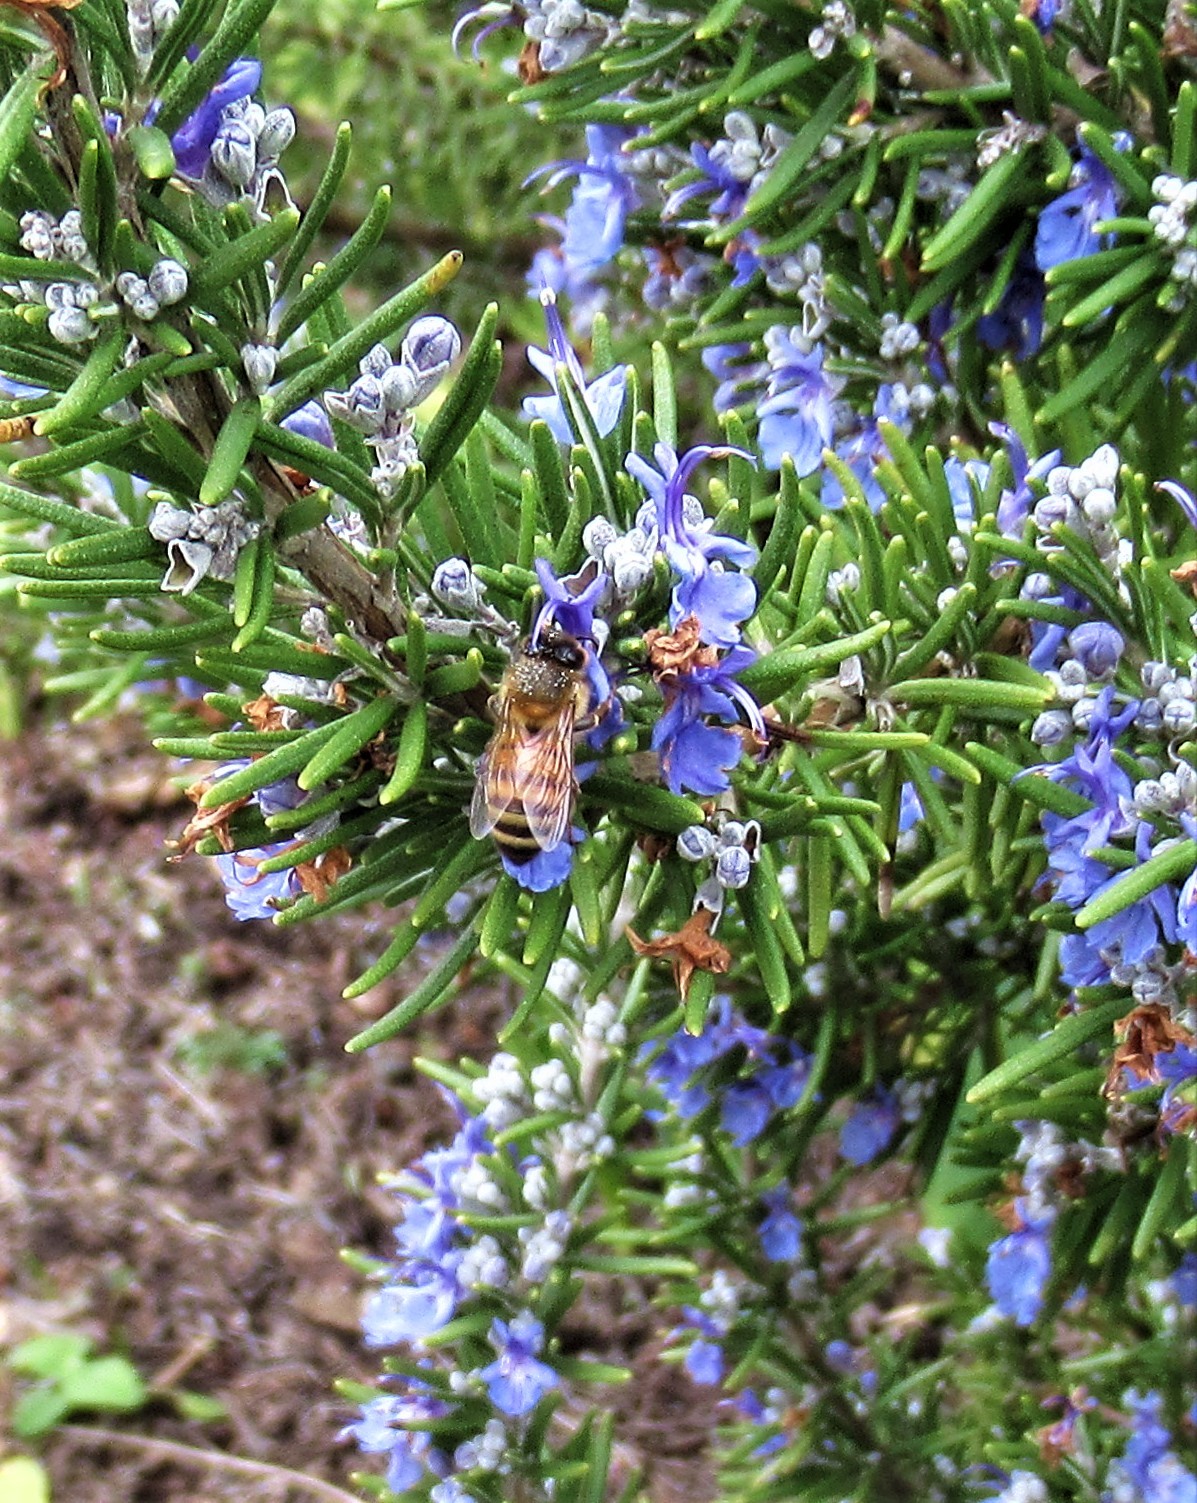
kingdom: Animalia
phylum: Arthropoda
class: Insecta
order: Hymenoptera
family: Apidae
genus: Apis
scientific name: Apis mellifera
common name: Honey bee
